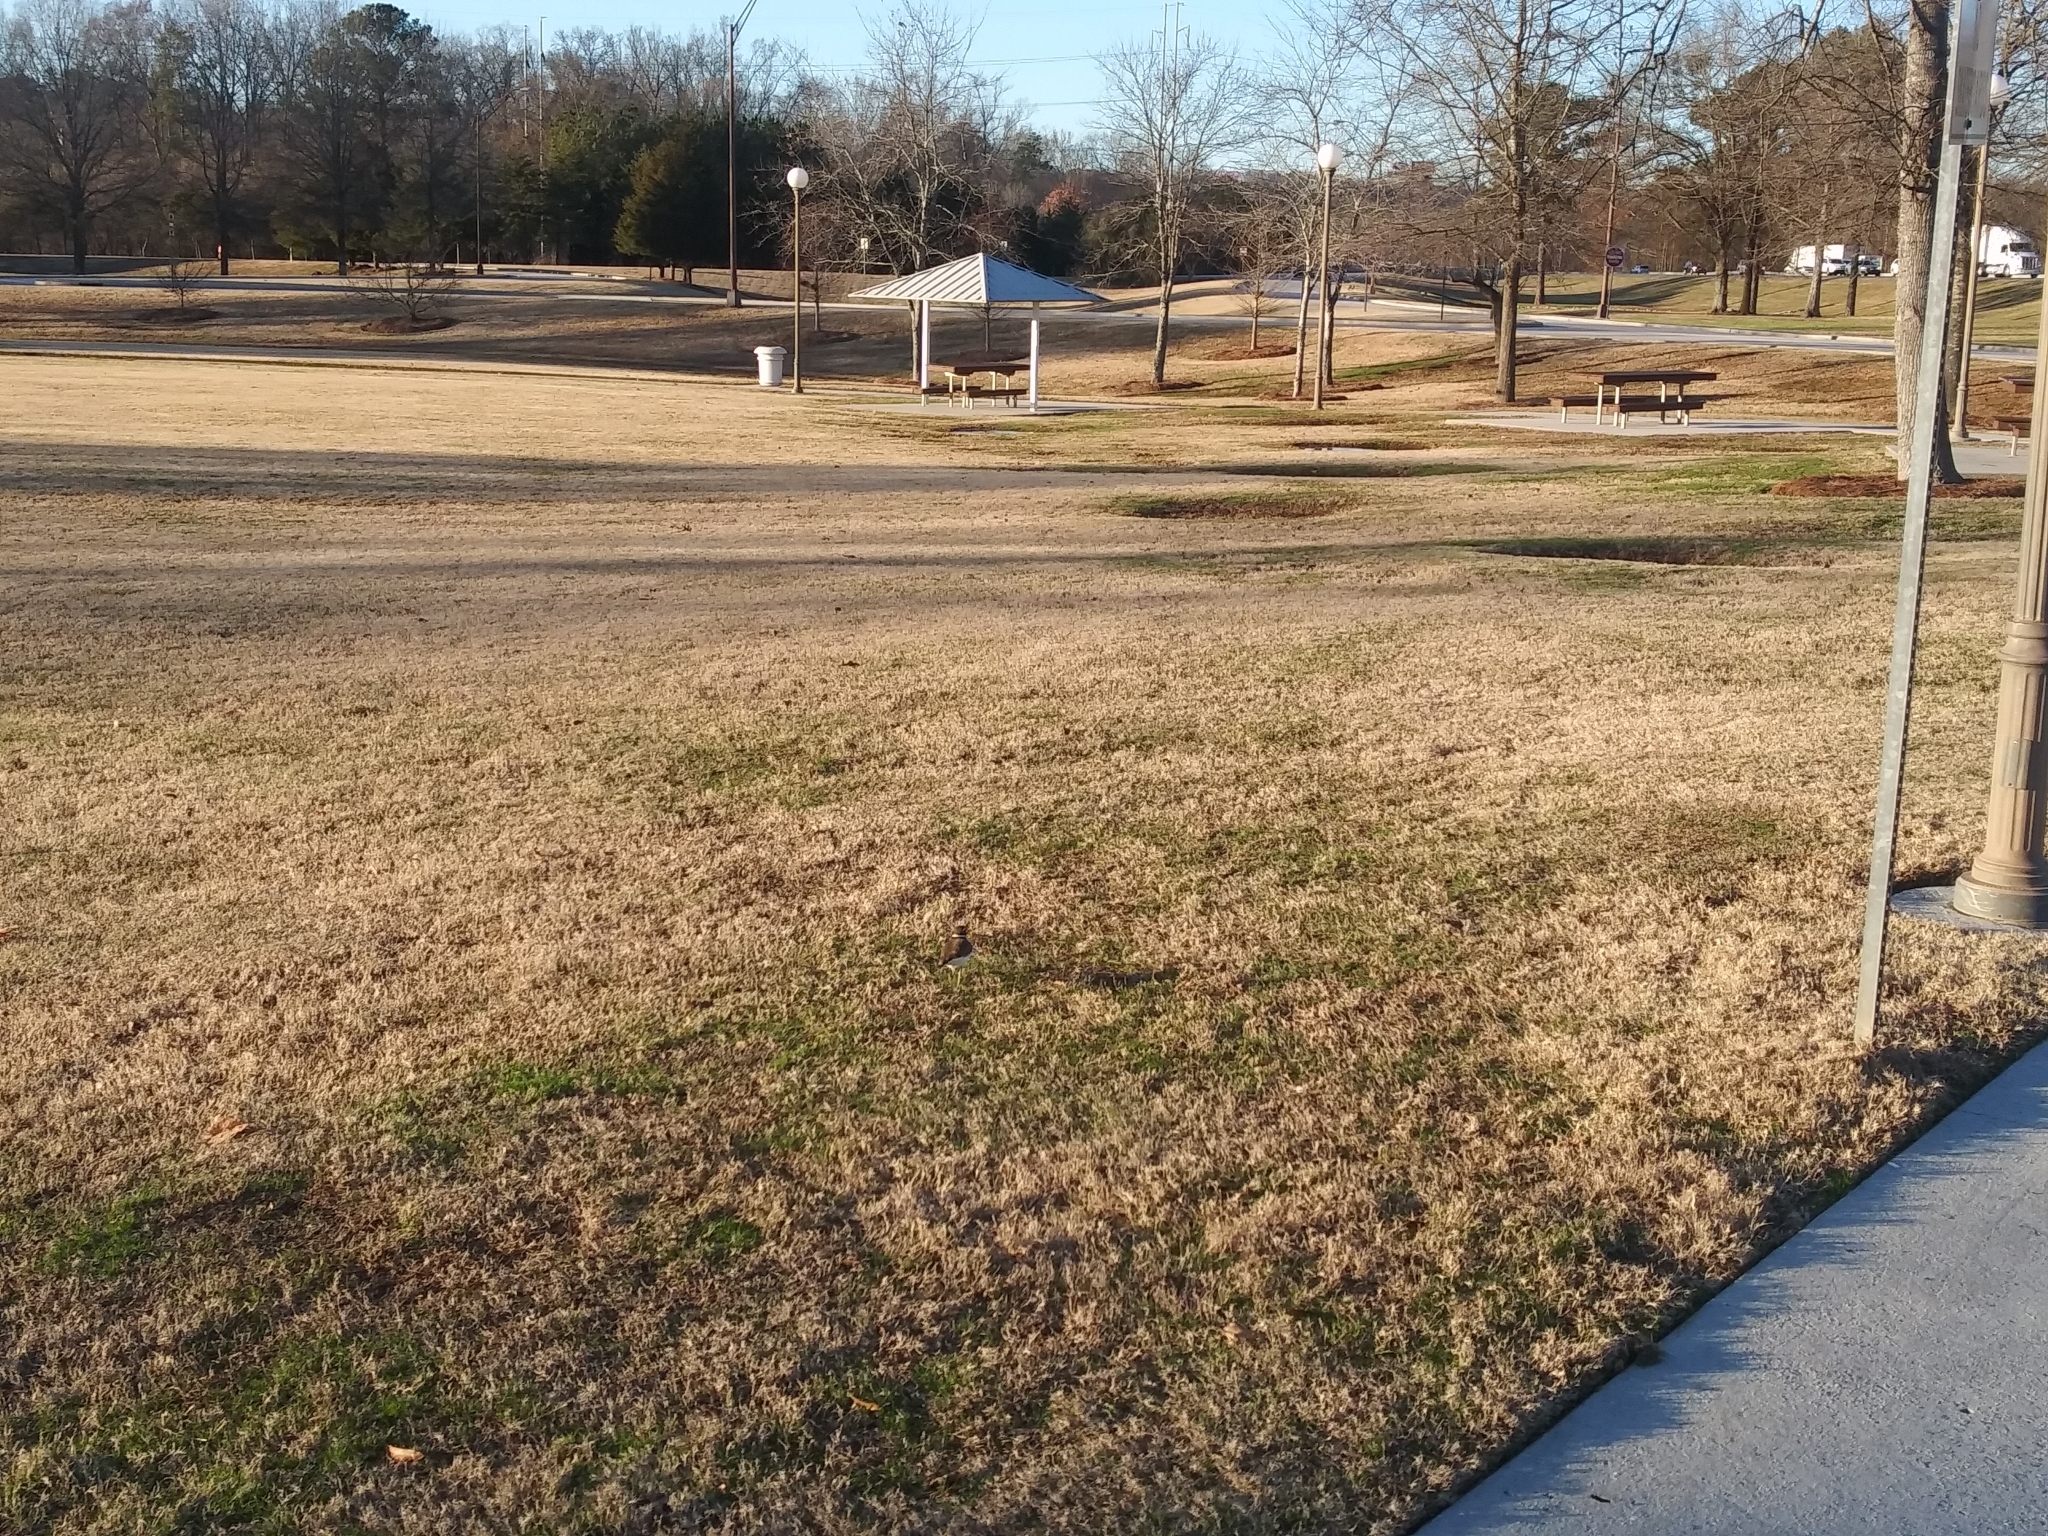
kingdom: Animalia
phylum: Chordata
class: Aves
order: Charadriiformes
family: Charadriidae
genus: Charadrius
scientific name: Charadrius vociferus
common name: Killdeer
